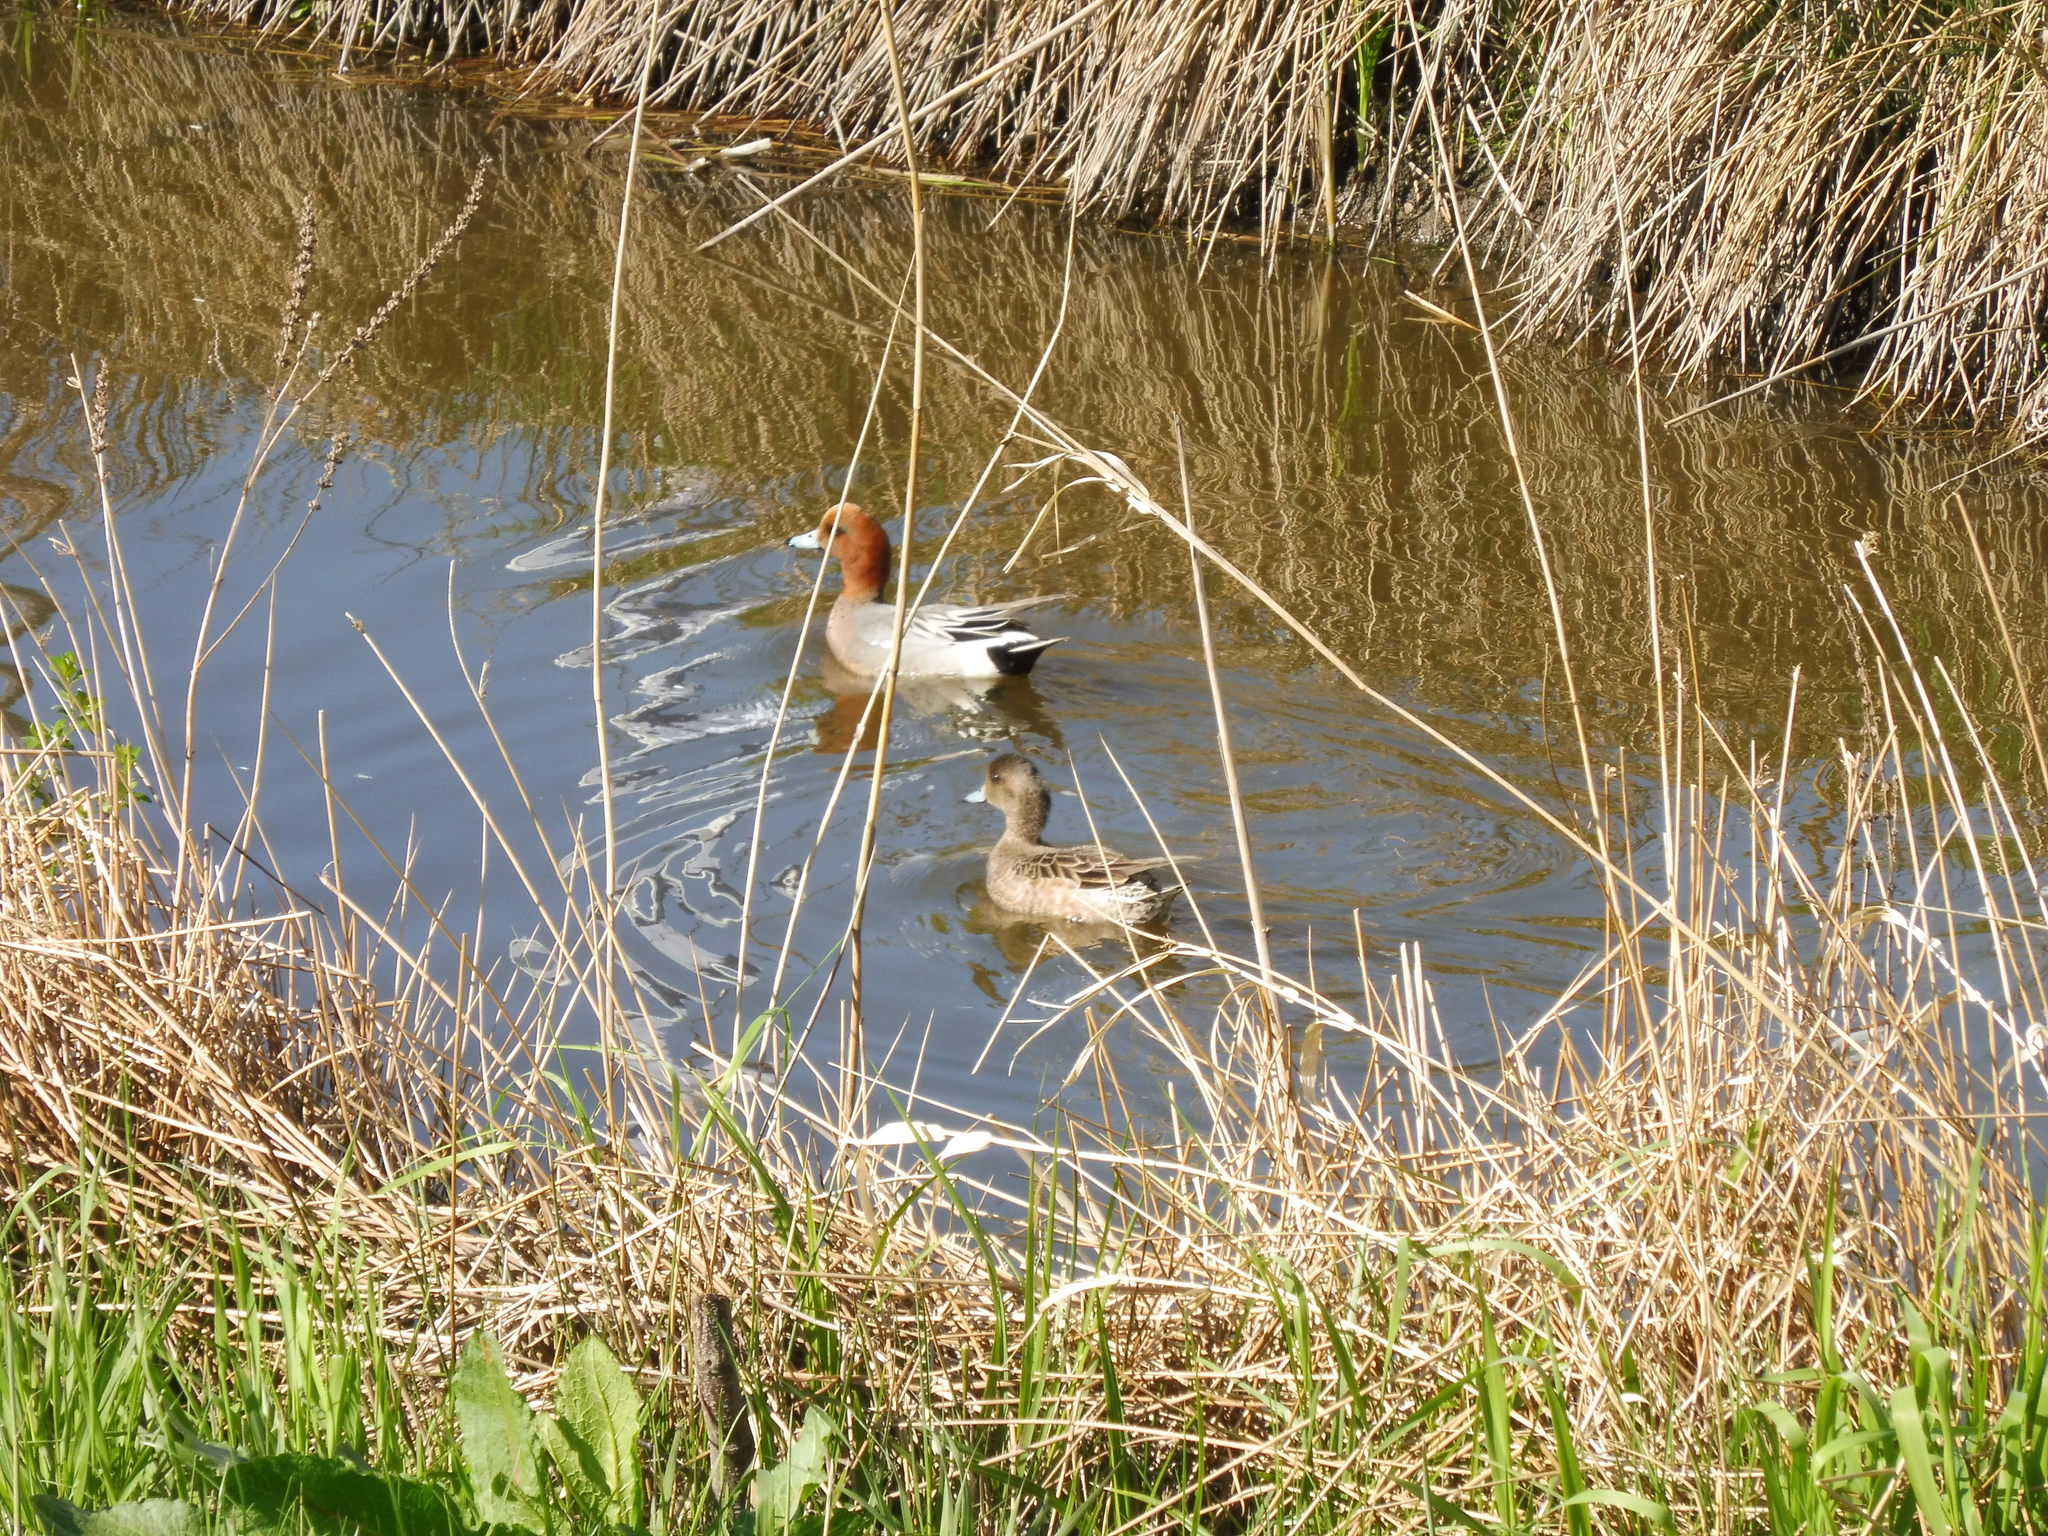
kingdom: Animalia
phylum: Chordata
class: Aves
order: Anseriformes
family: Anatidae
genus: Mareca
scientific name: Mareca penelope
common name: Eurasian wigeon
